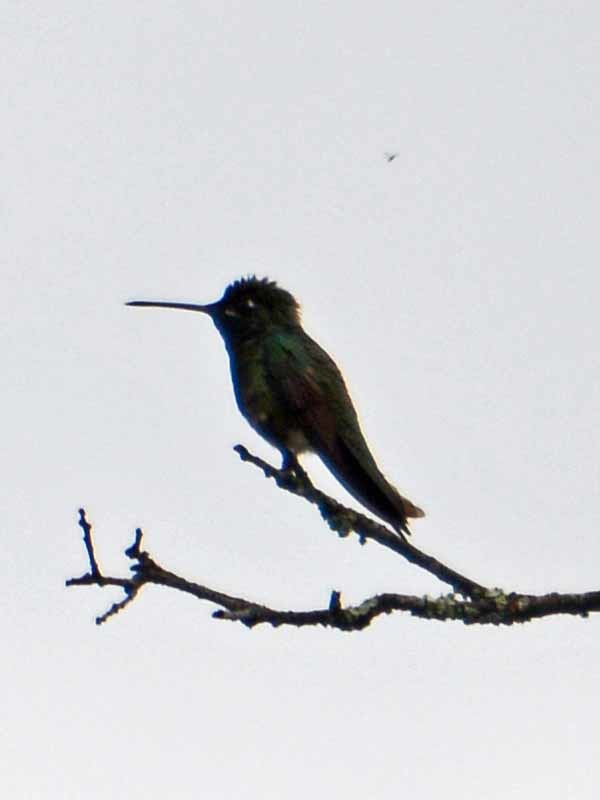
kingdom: Animalia
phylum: Chordata
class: Aves
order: Apodiformes
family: Trochilidae
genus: Eugenes
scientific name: Eugenes fulgens
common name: Magnificent hummingbird
